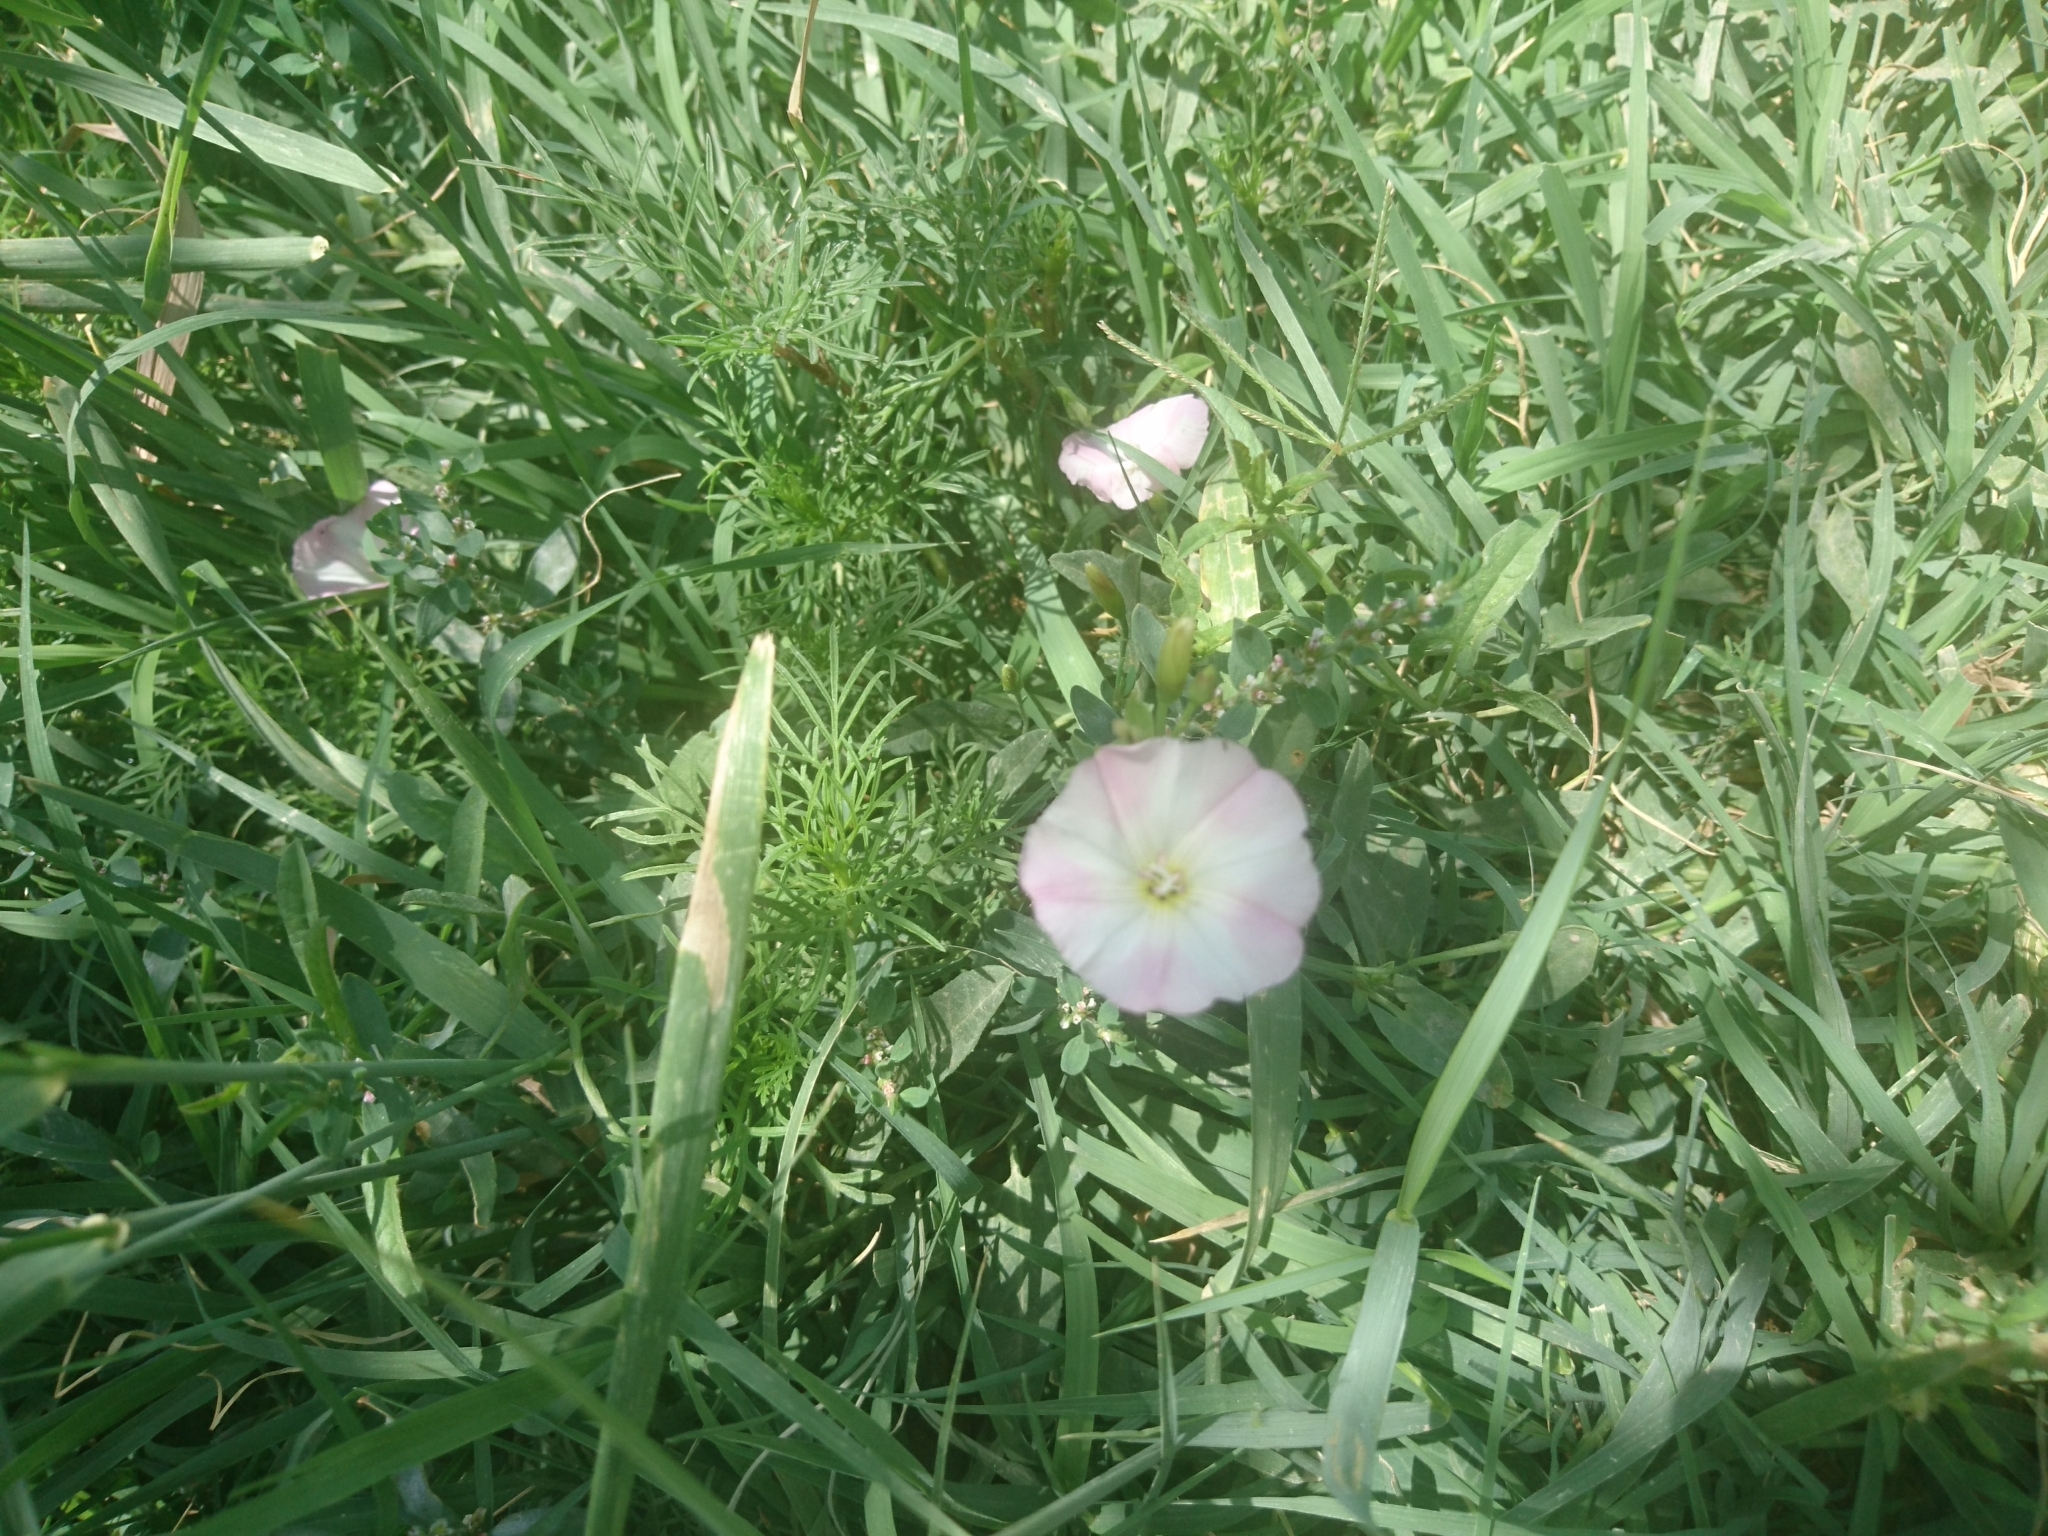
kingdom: Plantae
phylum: Tracheophyta
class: Magnoliopsida
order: Solanales
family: Convolvulaceae
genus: Convolvulus
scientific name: Convolvulus arvensis
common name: Field bindweed
